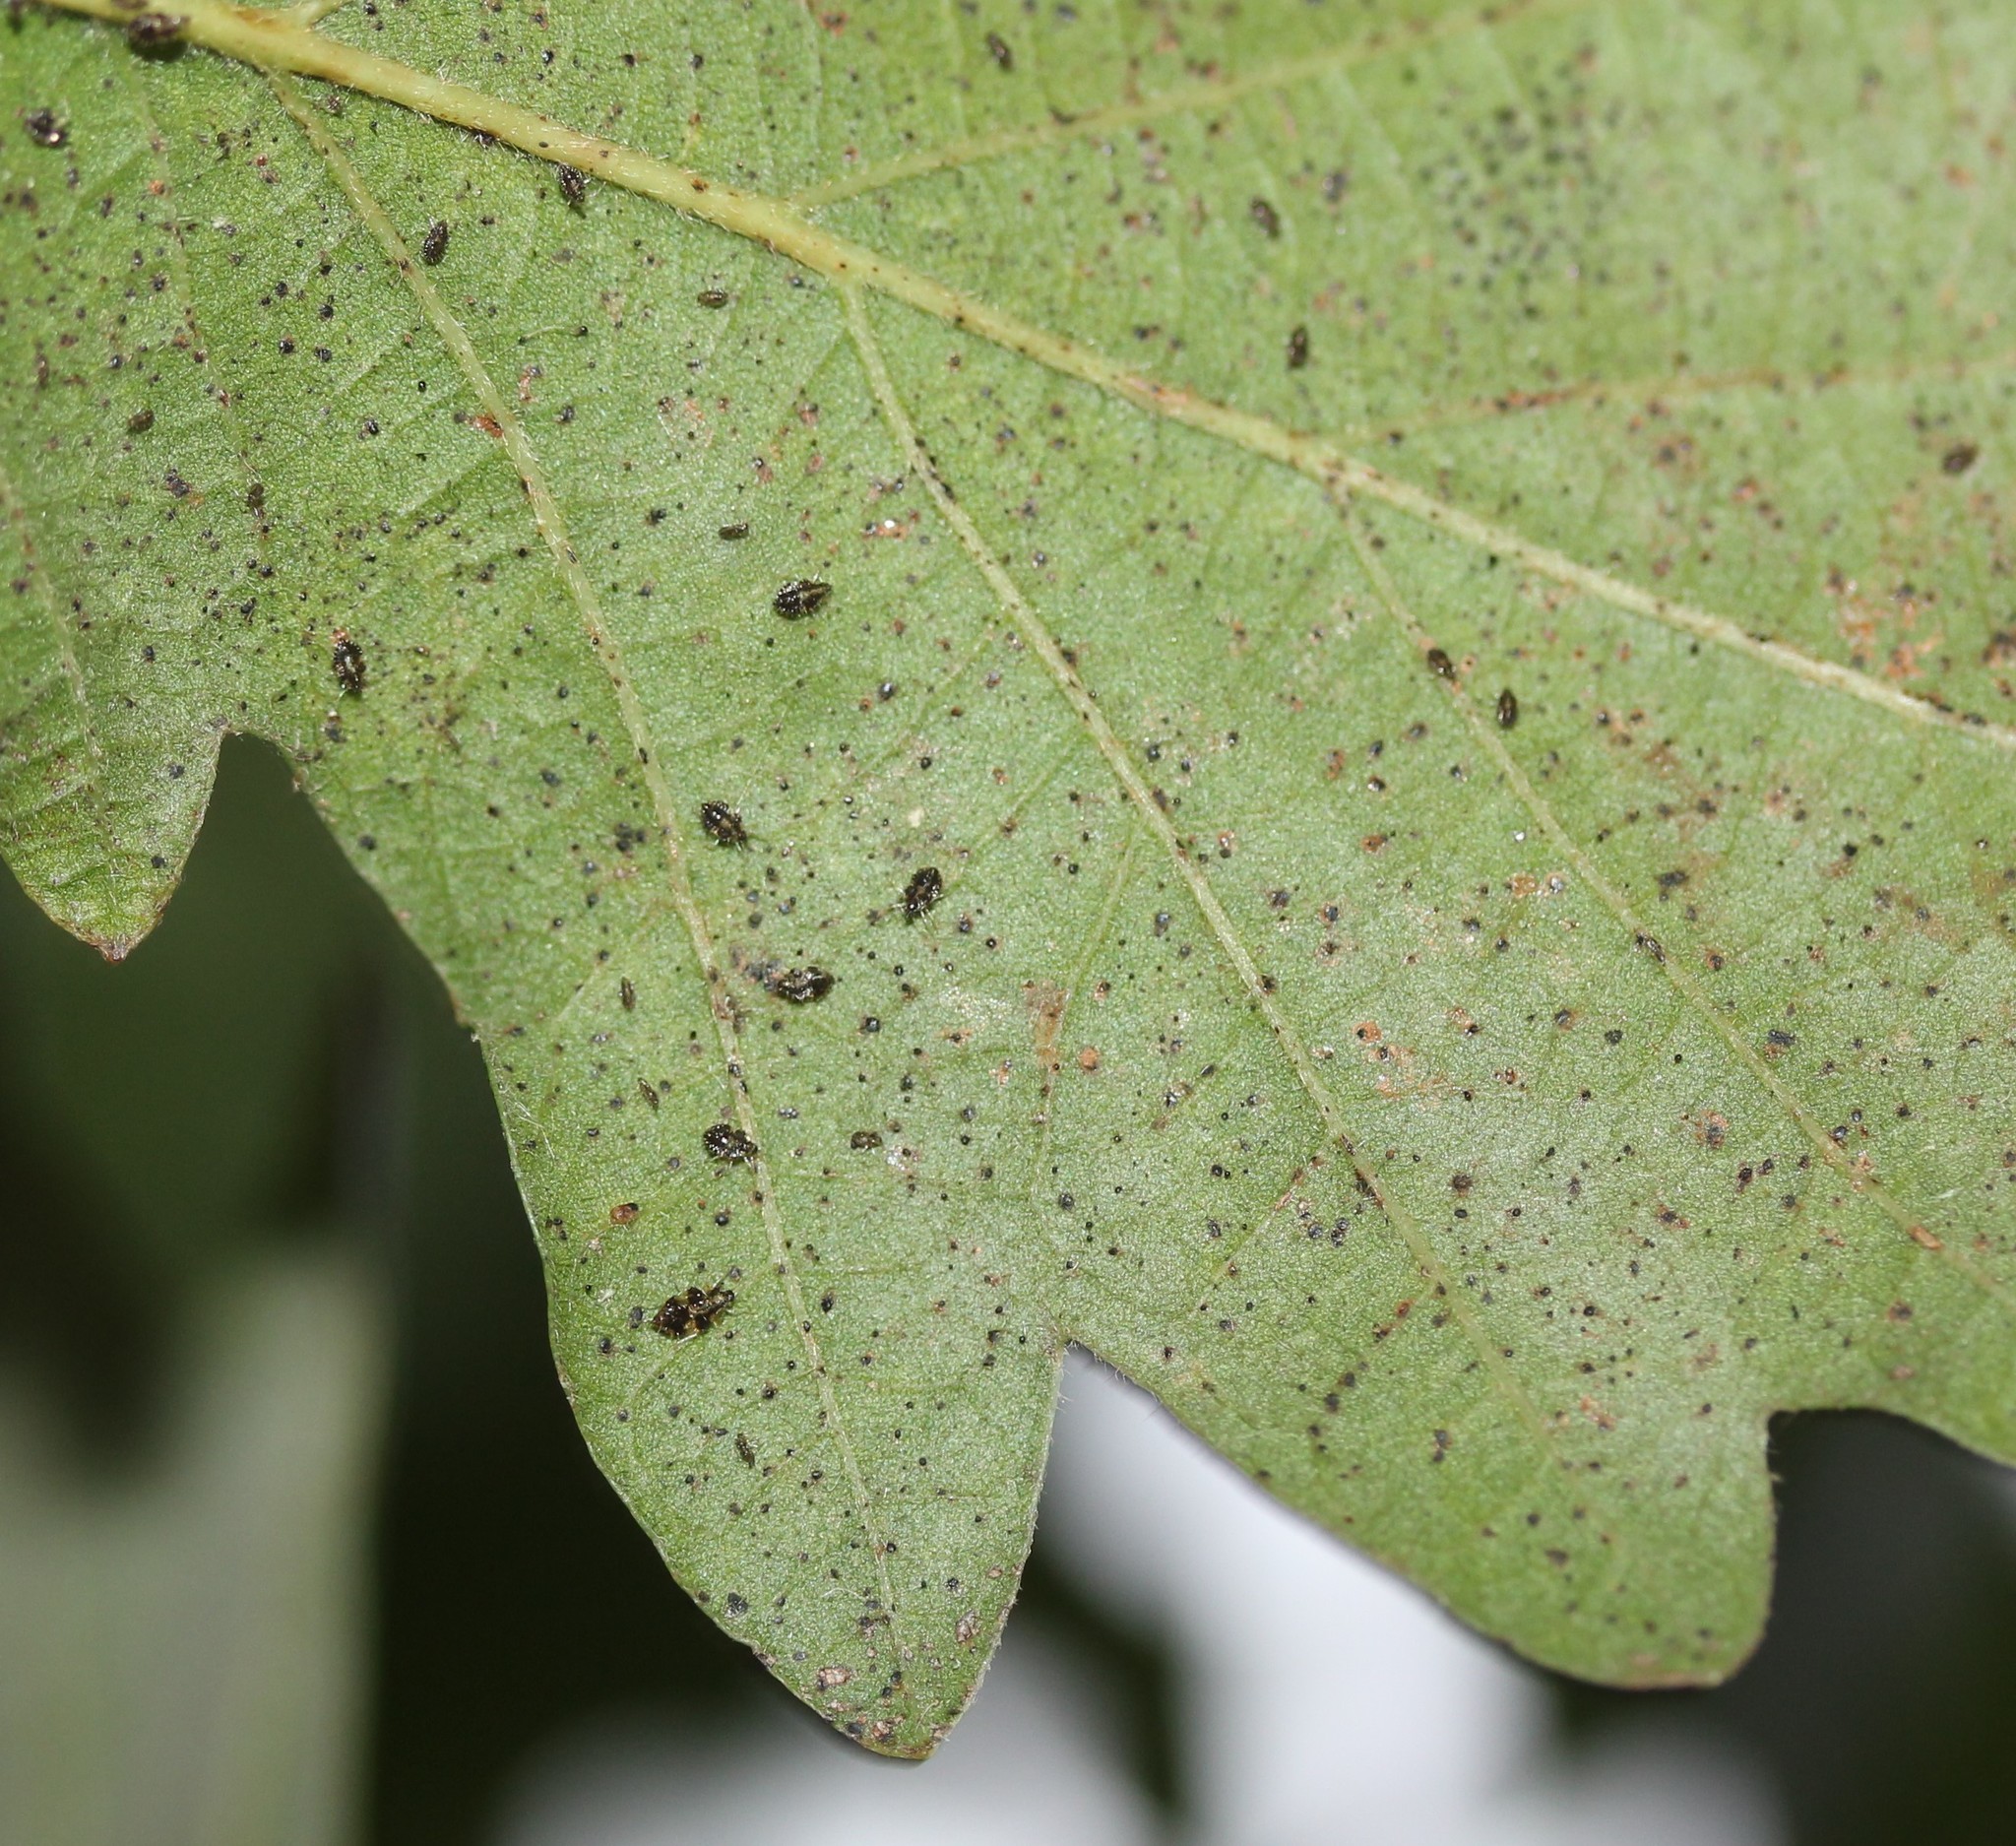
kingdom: Animalia
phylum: Arthropoda
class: Insecta
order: Hemiptera
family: Tingidae
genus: Corythucha
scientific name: Corythucha arcuata
